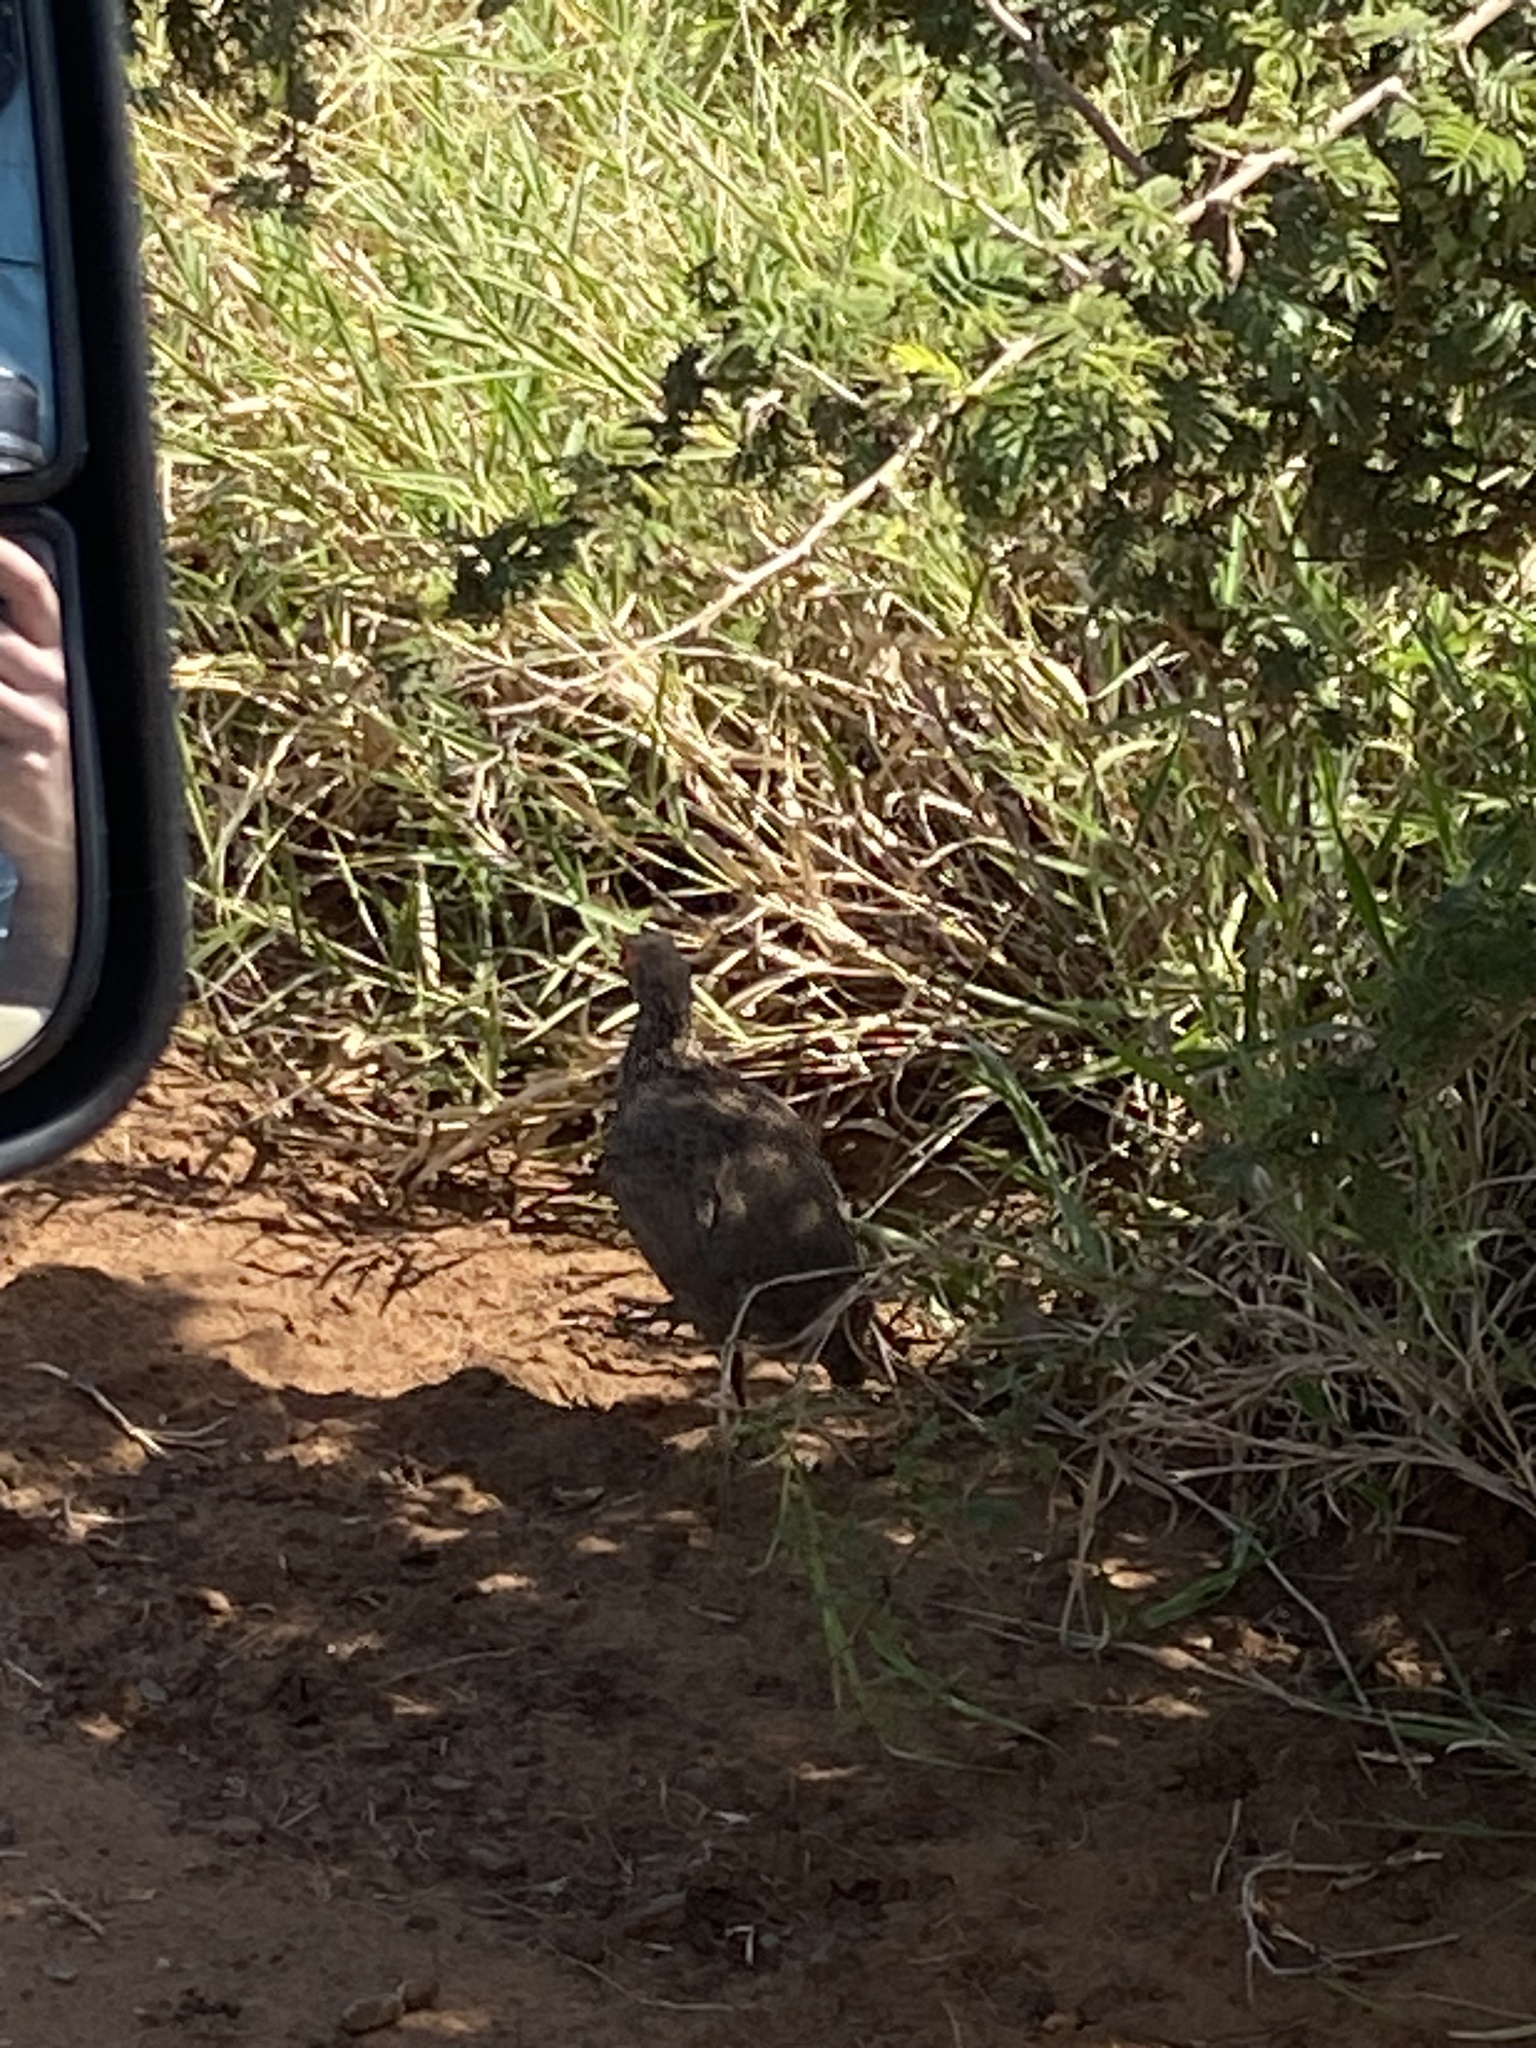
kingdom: Animalia
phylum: Chordata
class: Aves
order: Galliformes
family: Phasianidae
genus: Pternistis
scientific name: Pternistis swainsonii
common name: Swainson's spurfowl
